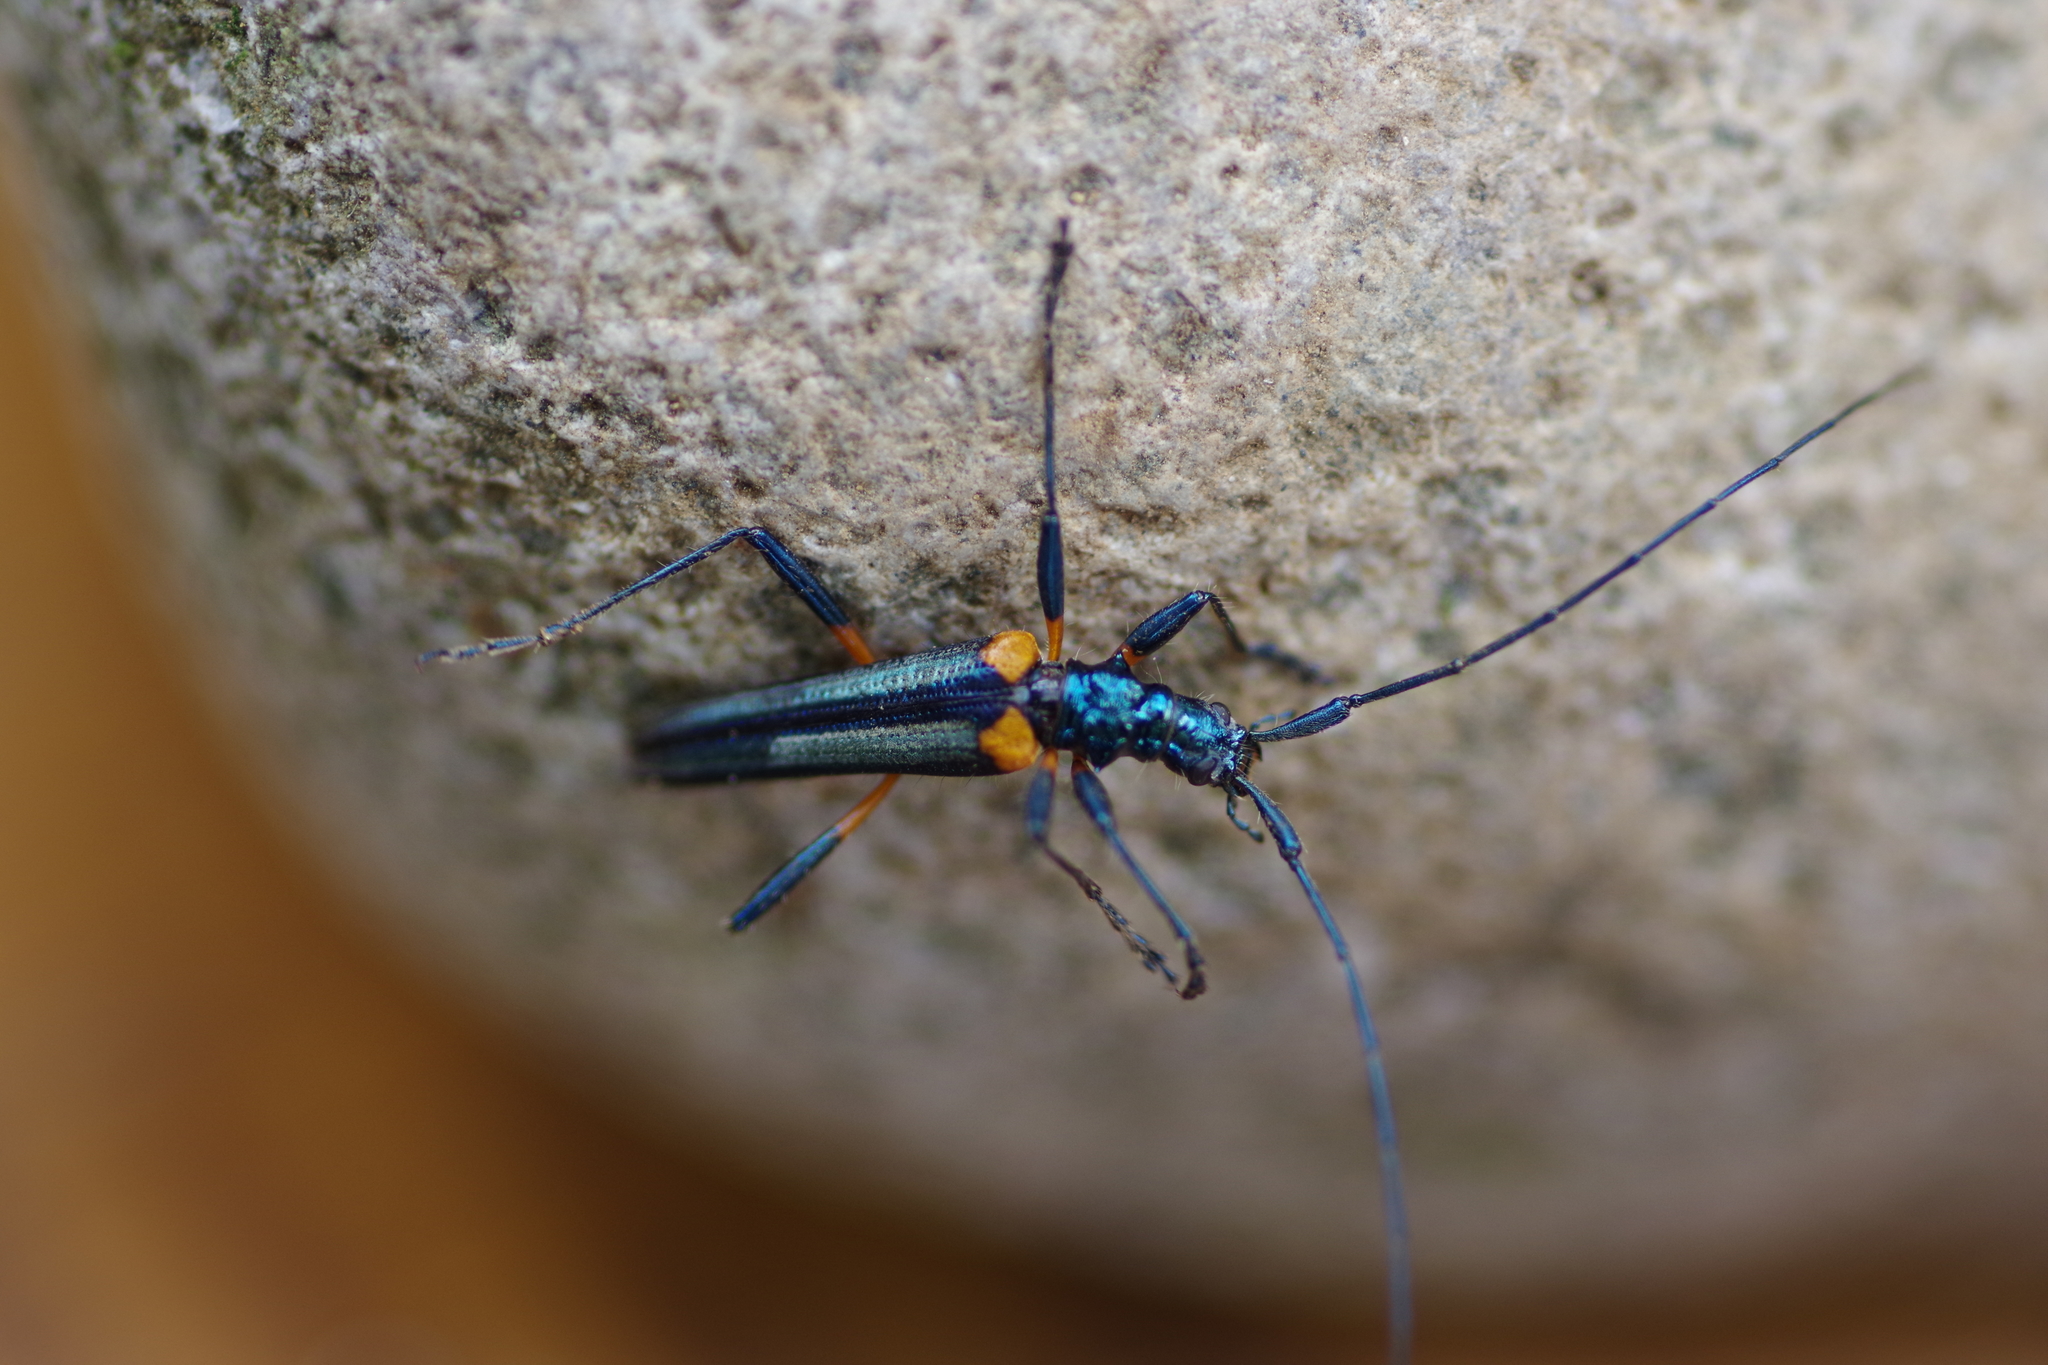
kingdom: Animalia
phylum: Arthropoda
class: Insecta
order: Coleoptera
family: Cerambycidae
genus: Novantinoe
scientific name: Novantinoe hovorei
